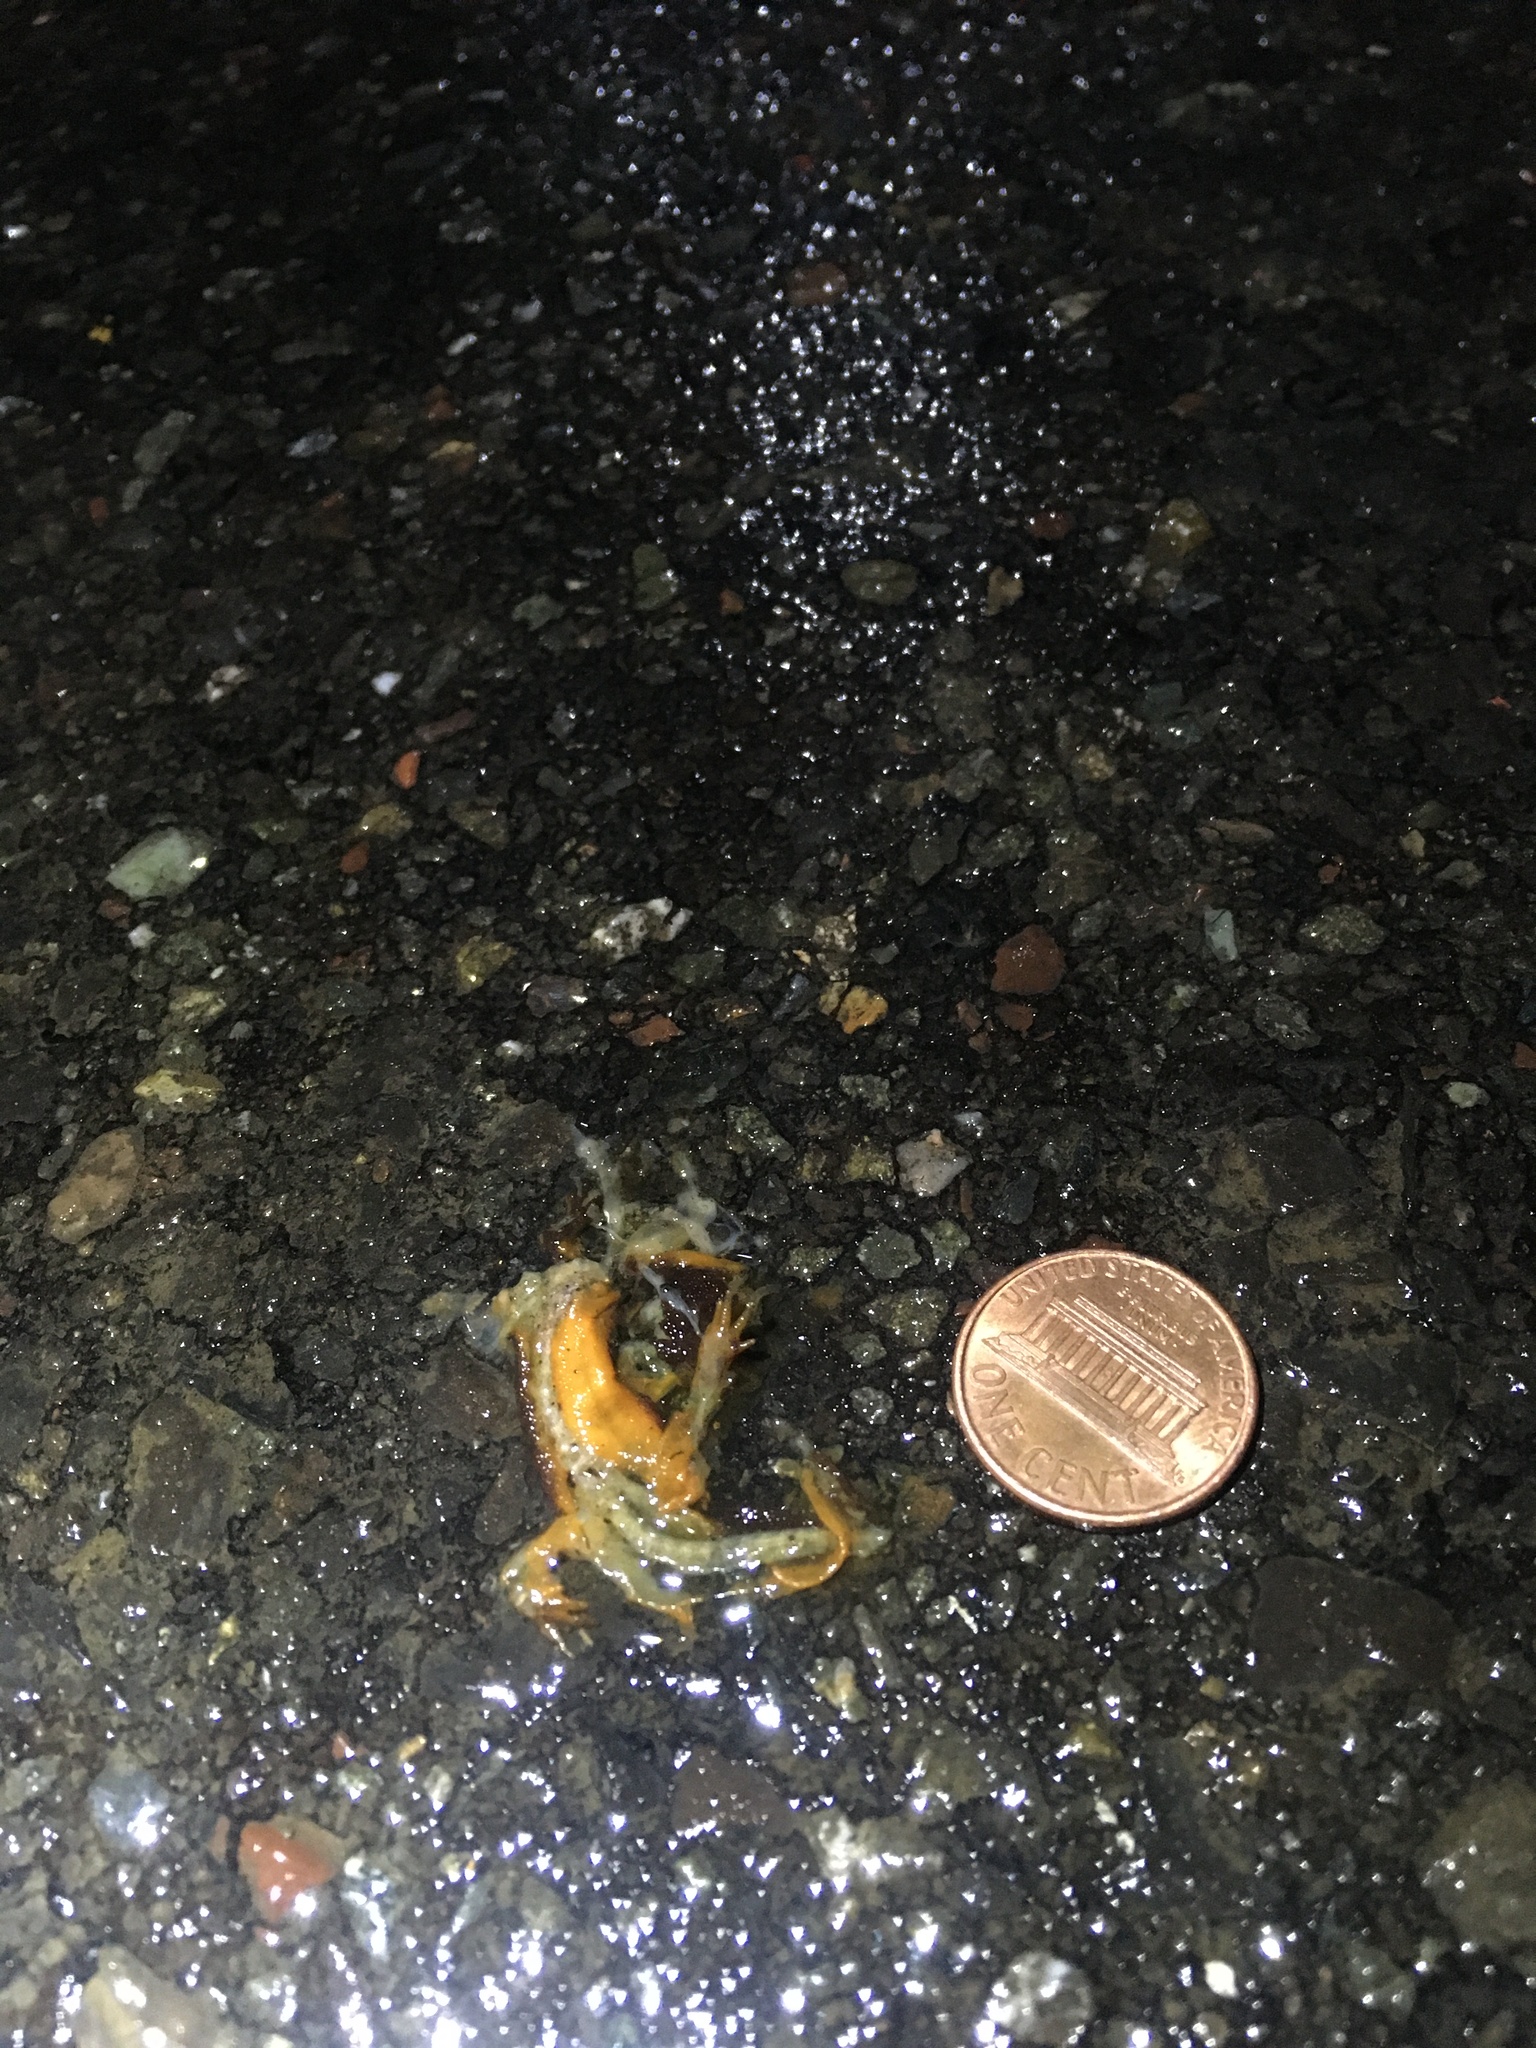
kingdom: Animalia
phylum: Chordata
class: Amphibia
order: Caudata
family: Salamandridae
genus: Taricha
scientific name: Taricha
